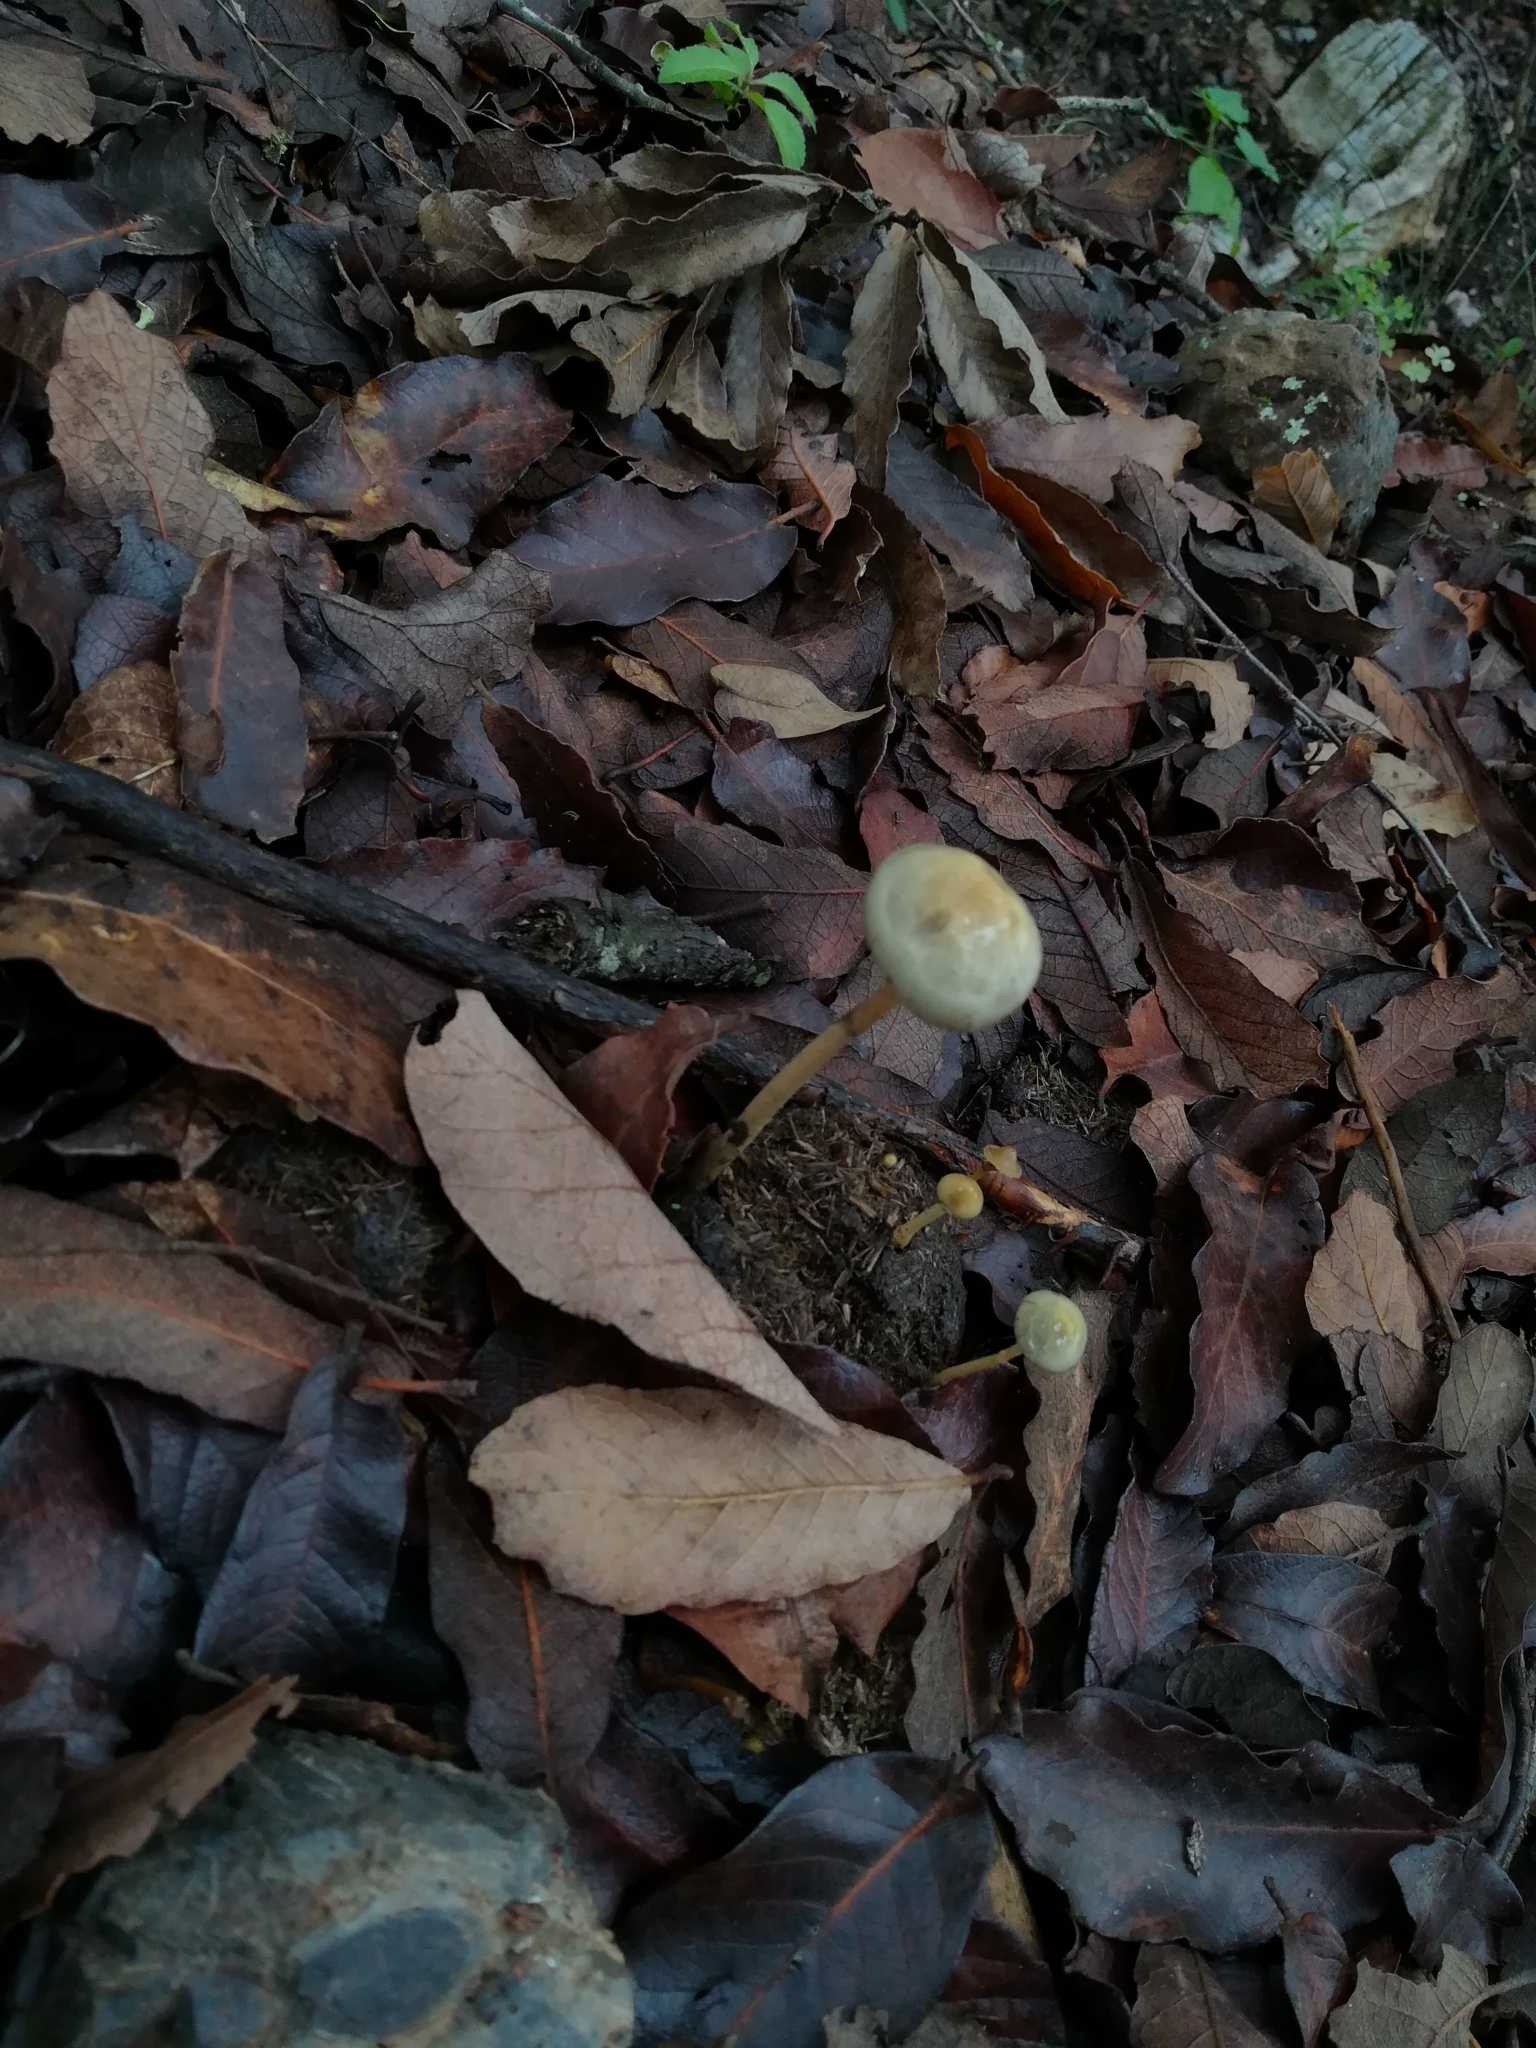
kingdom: Fungi
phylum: Basidiomycota
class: Agaricomycetes
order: Agaricales
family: Strophariaceae
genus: Protostropharia
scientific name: Protostropharia semiglobata
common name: Dung roundhead
